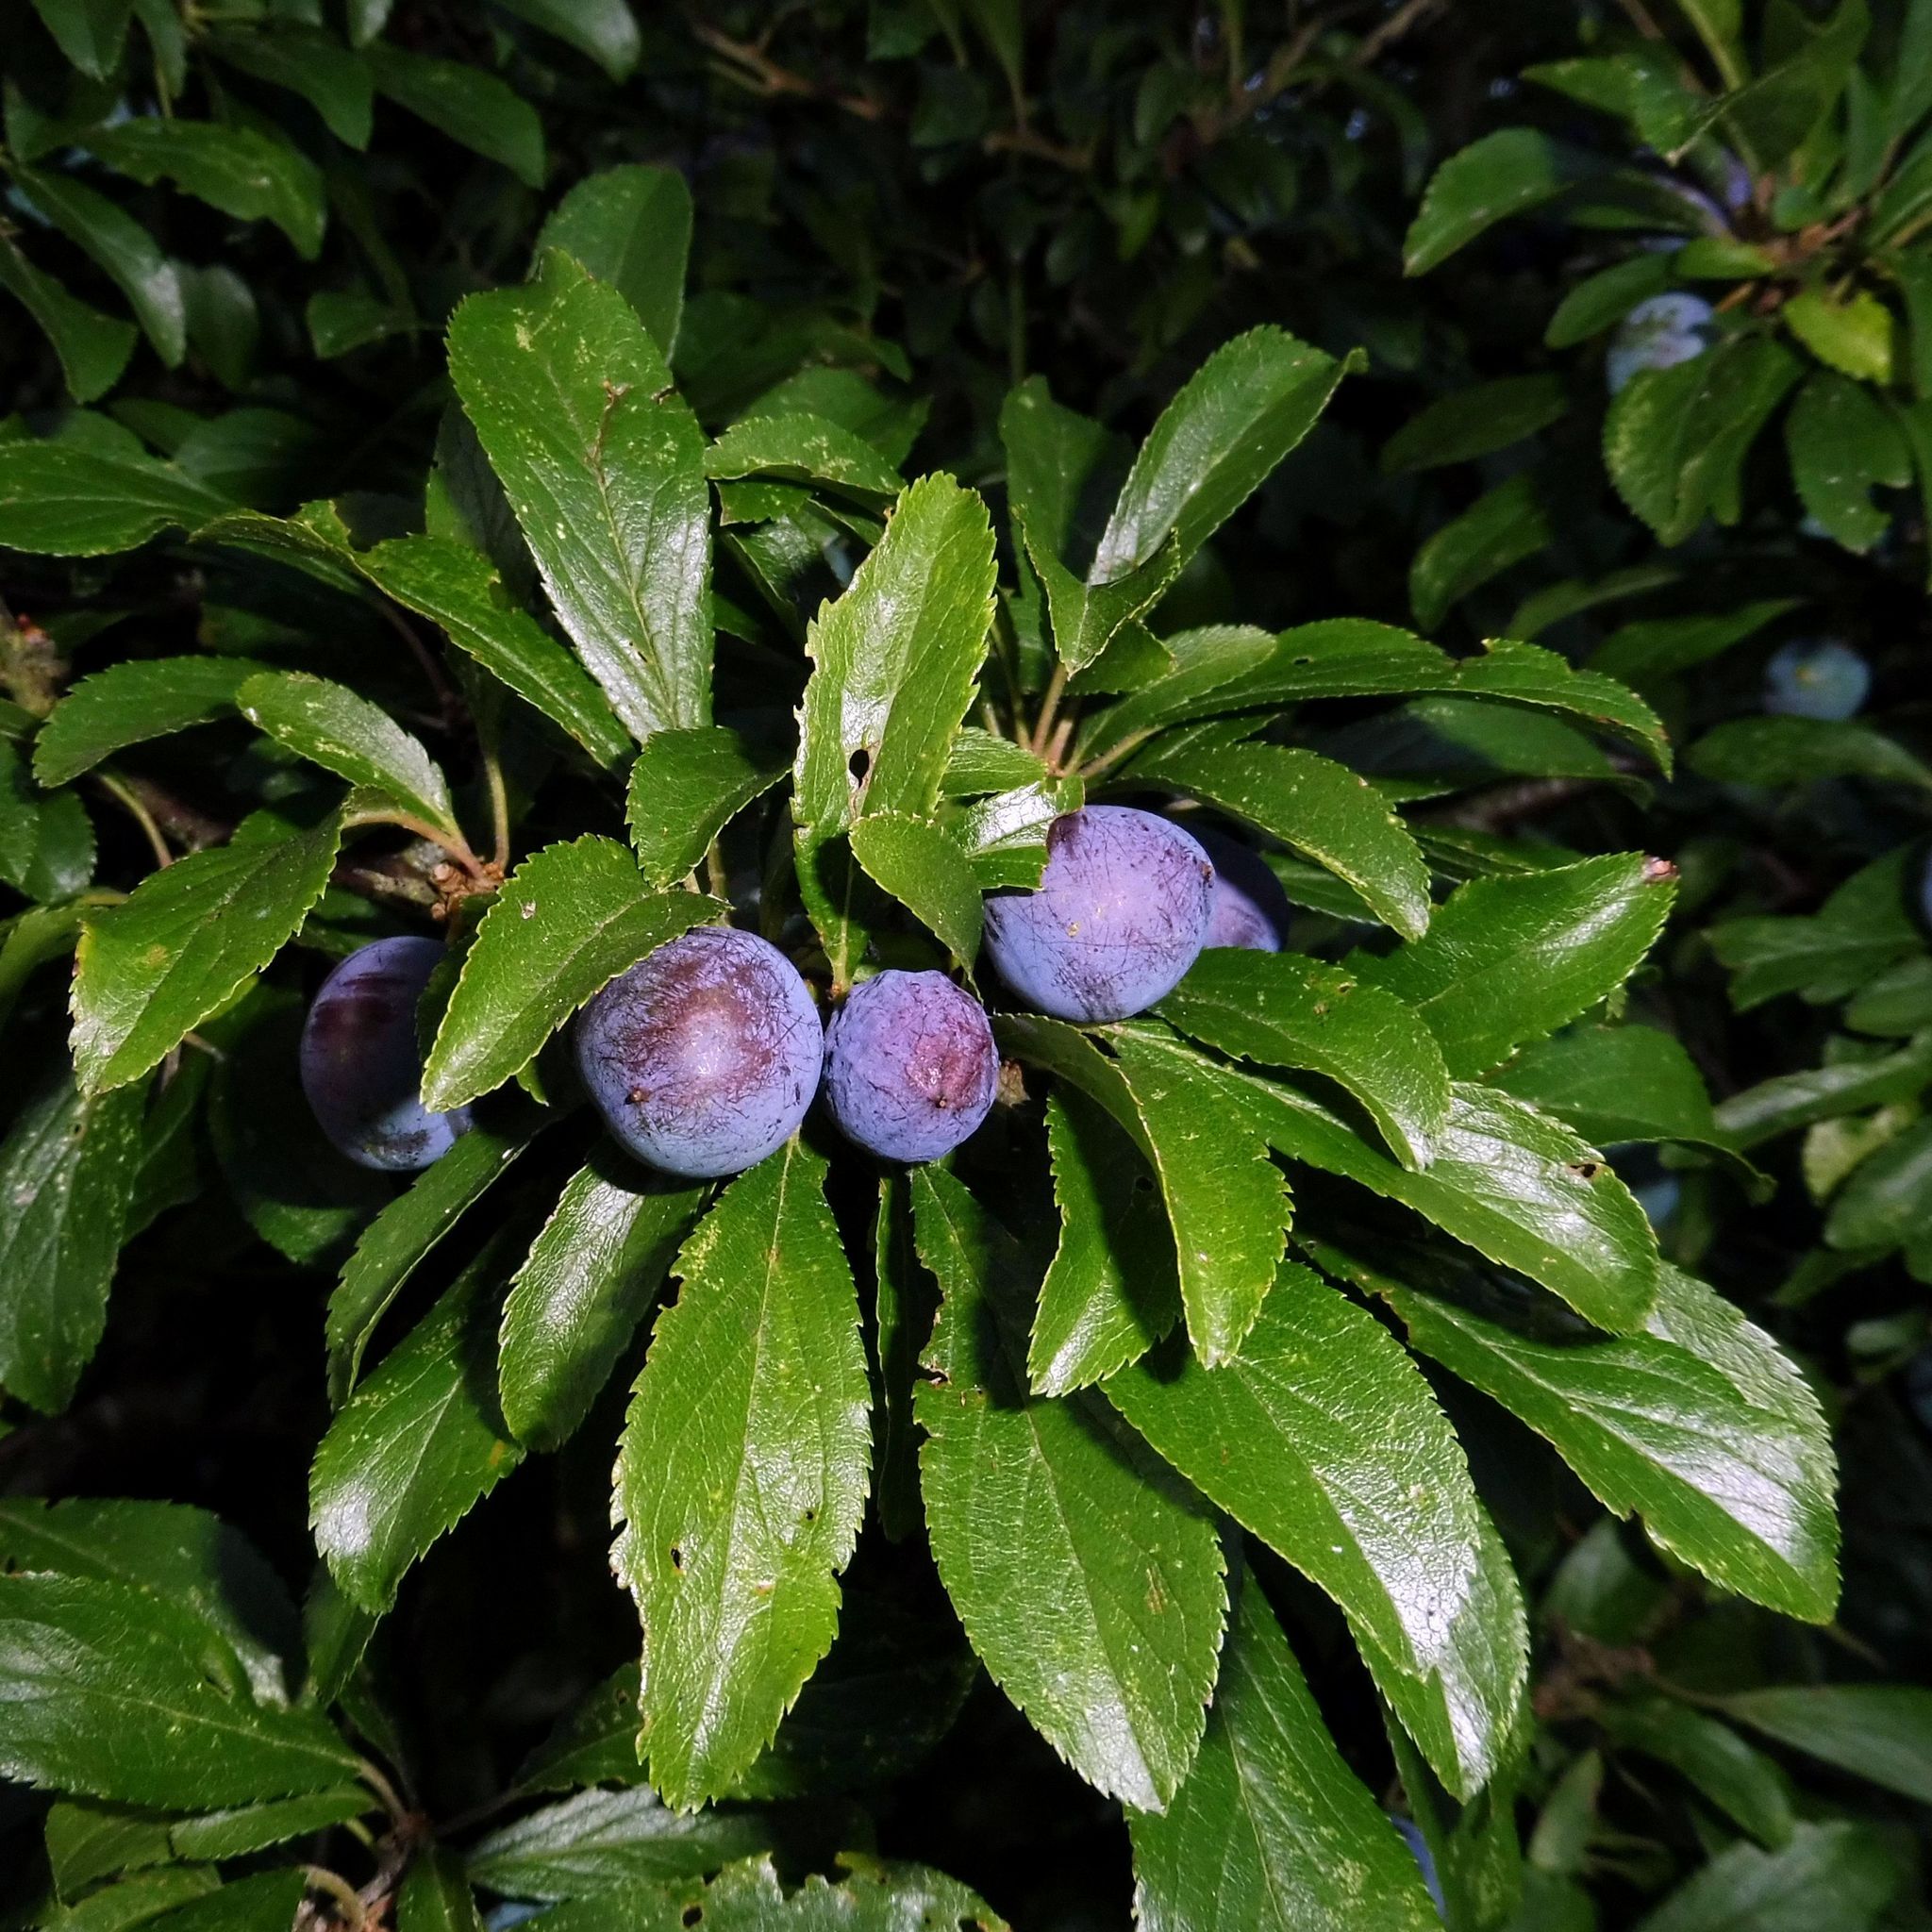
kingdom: Plantae
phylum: Tracheophyta
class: Magnoliopsida
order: Rosales
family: Rosaceae
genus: Prunus
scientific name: Prunus domestica
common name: Wild plum
